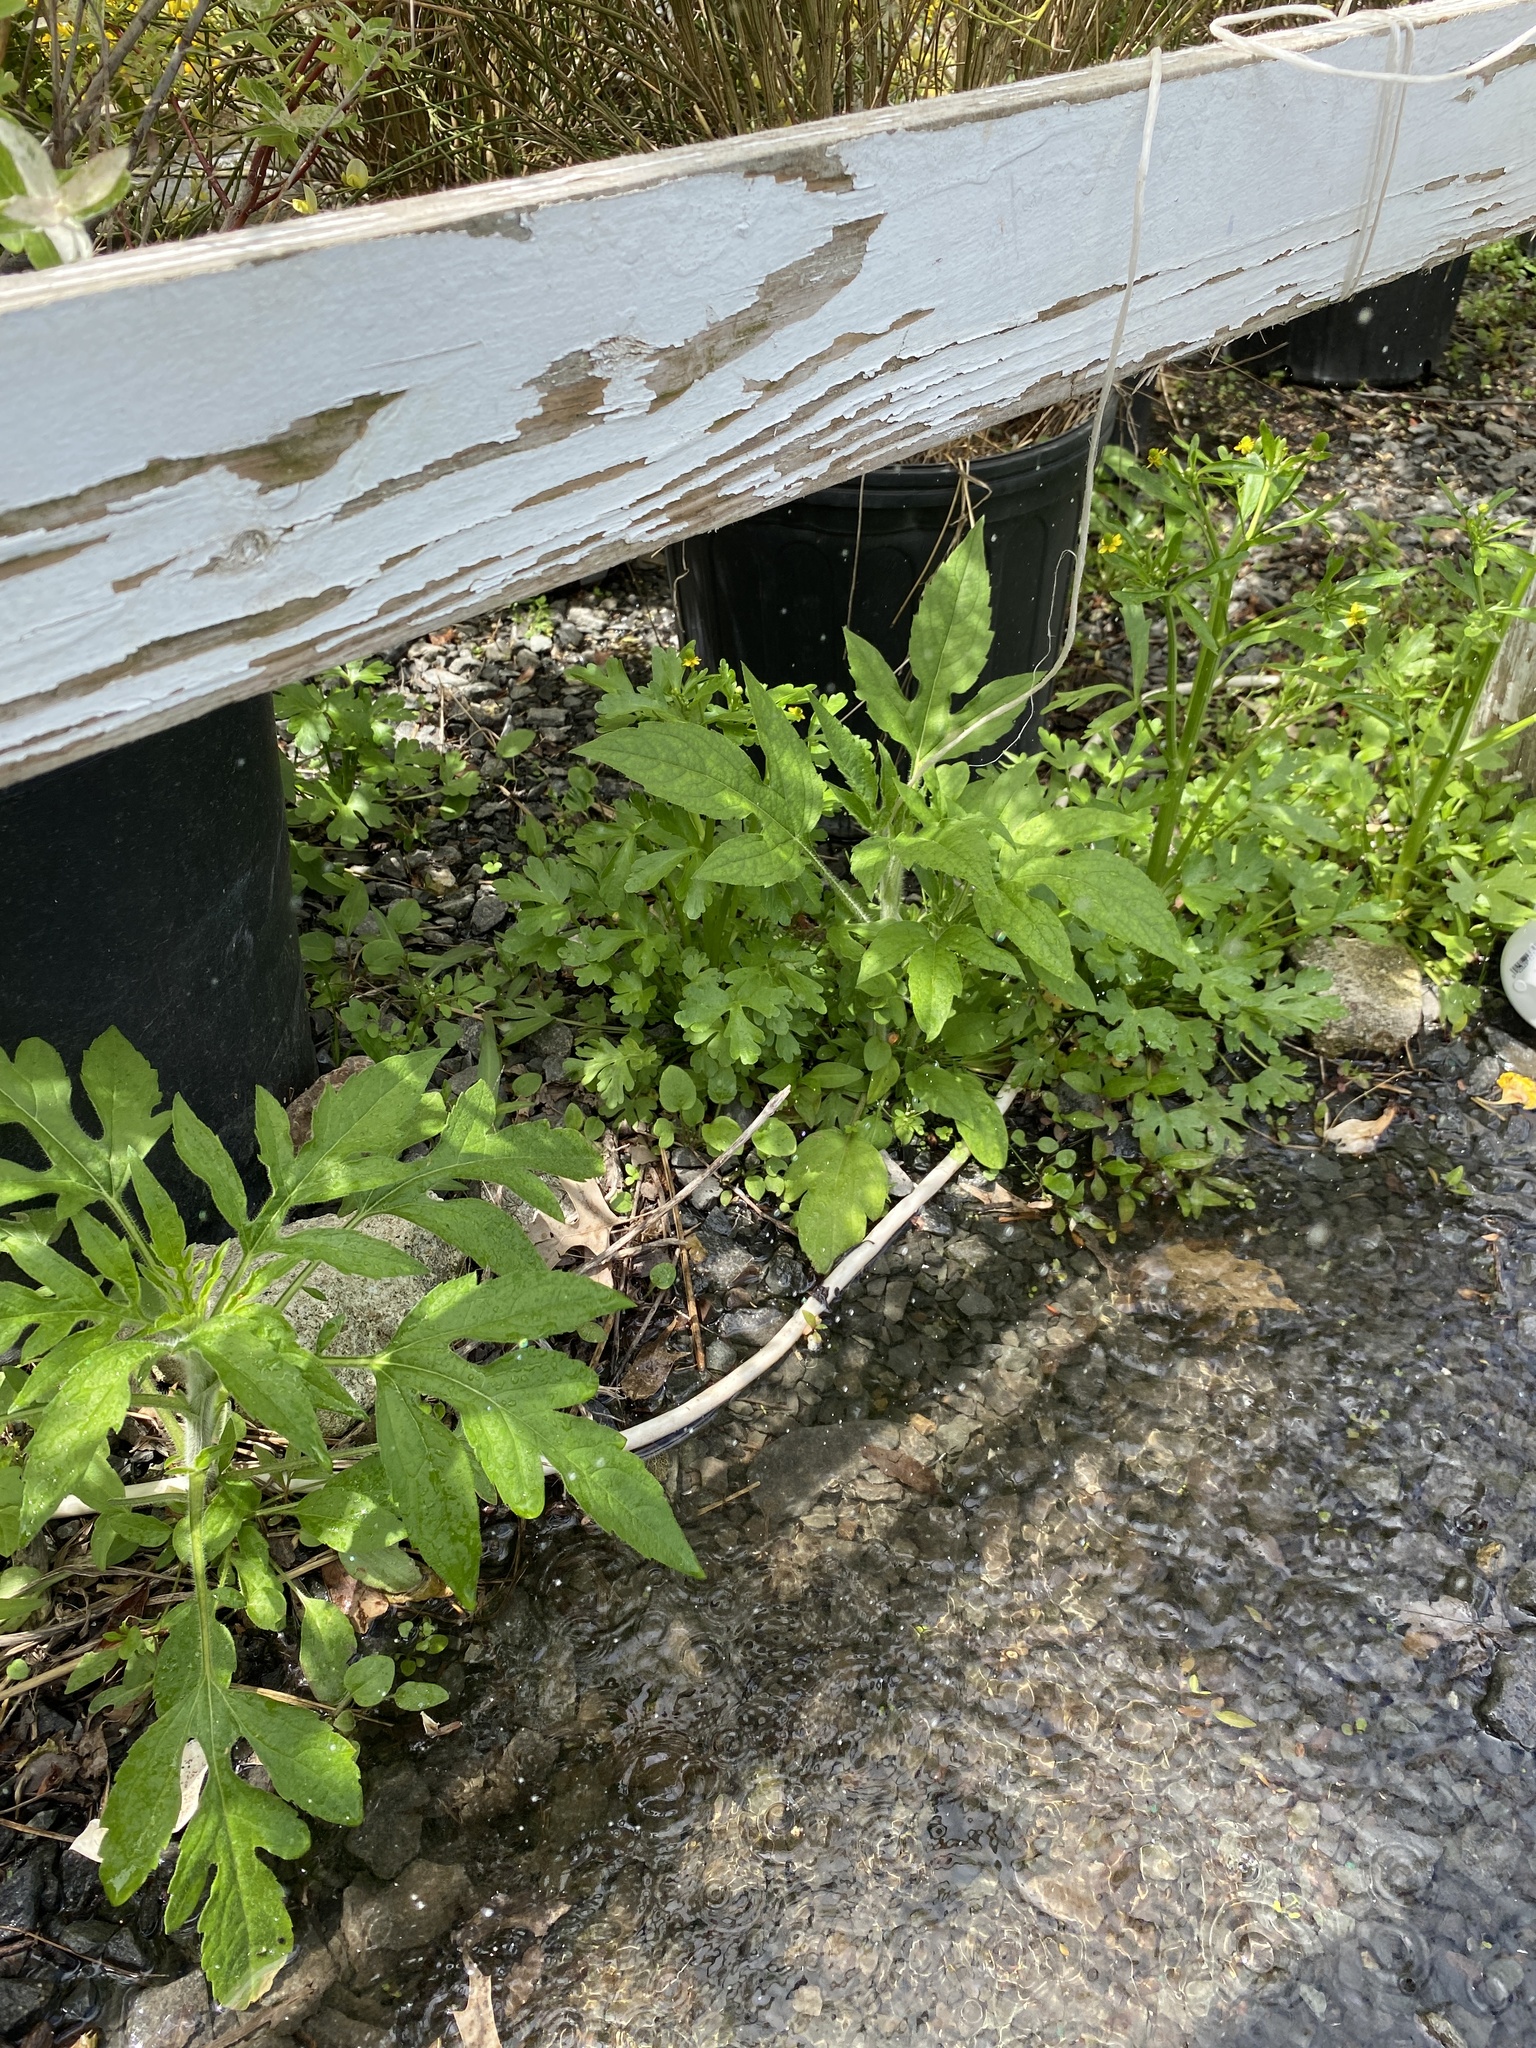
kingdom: Plantae
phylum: Tracheophyta
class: Magnoliopsida
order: Asterales
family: Asteraceae
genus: Ambrosia
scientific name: Ambrosia trifida
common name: Giant ragweed
